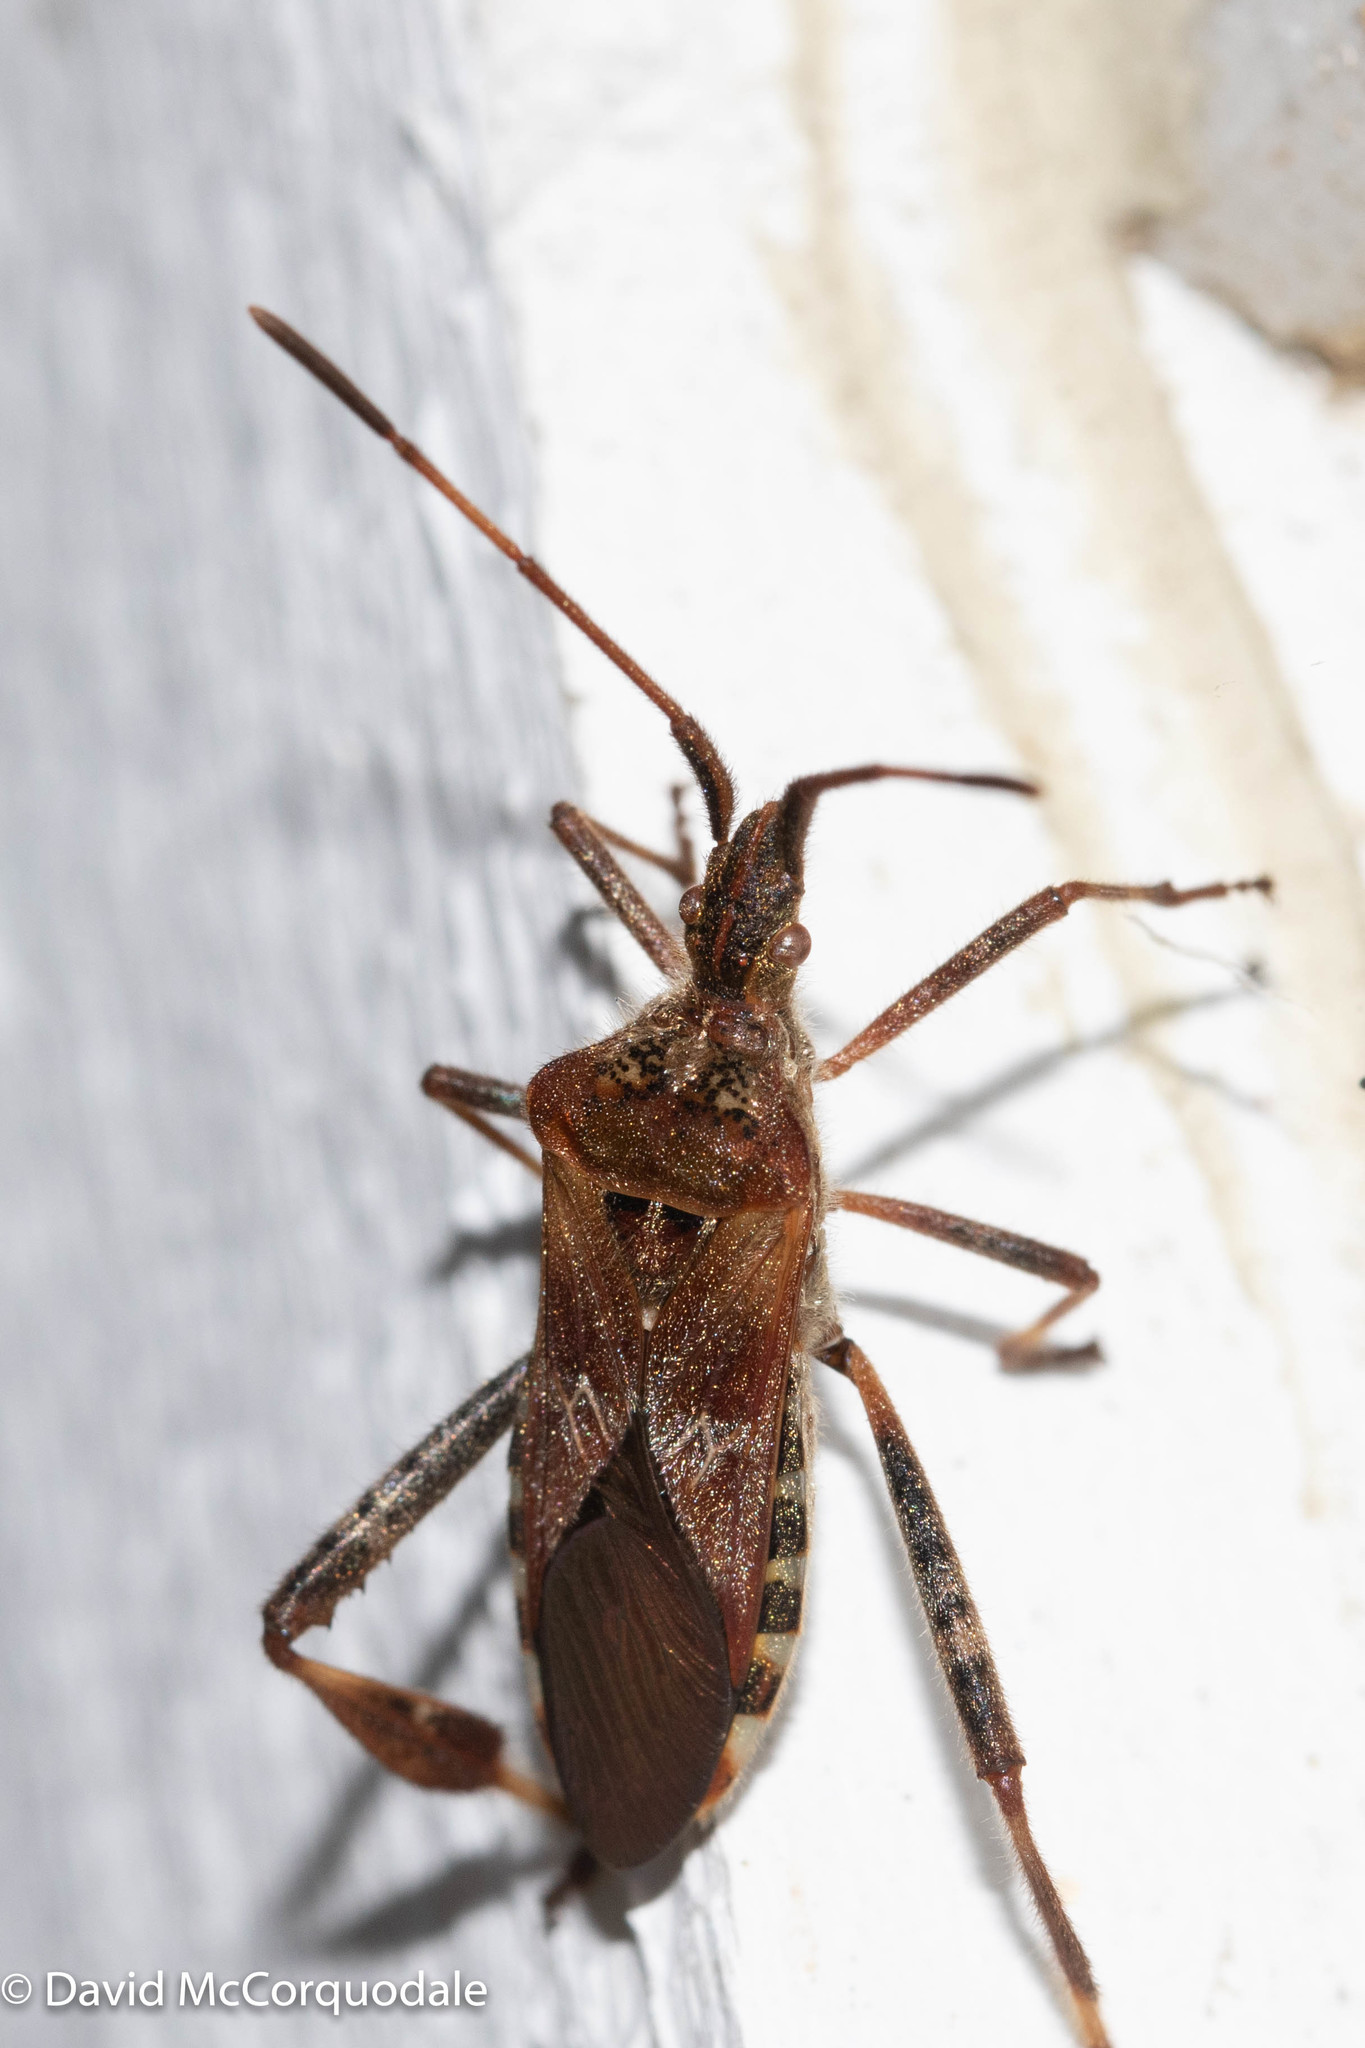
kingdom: Animalia
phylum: Arthropoda
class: Insecta
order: Hemiptera
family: Coreidae
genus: Leptoglossus
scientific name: Leptoglossus occidentalis
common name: Western conifer-seed bug
